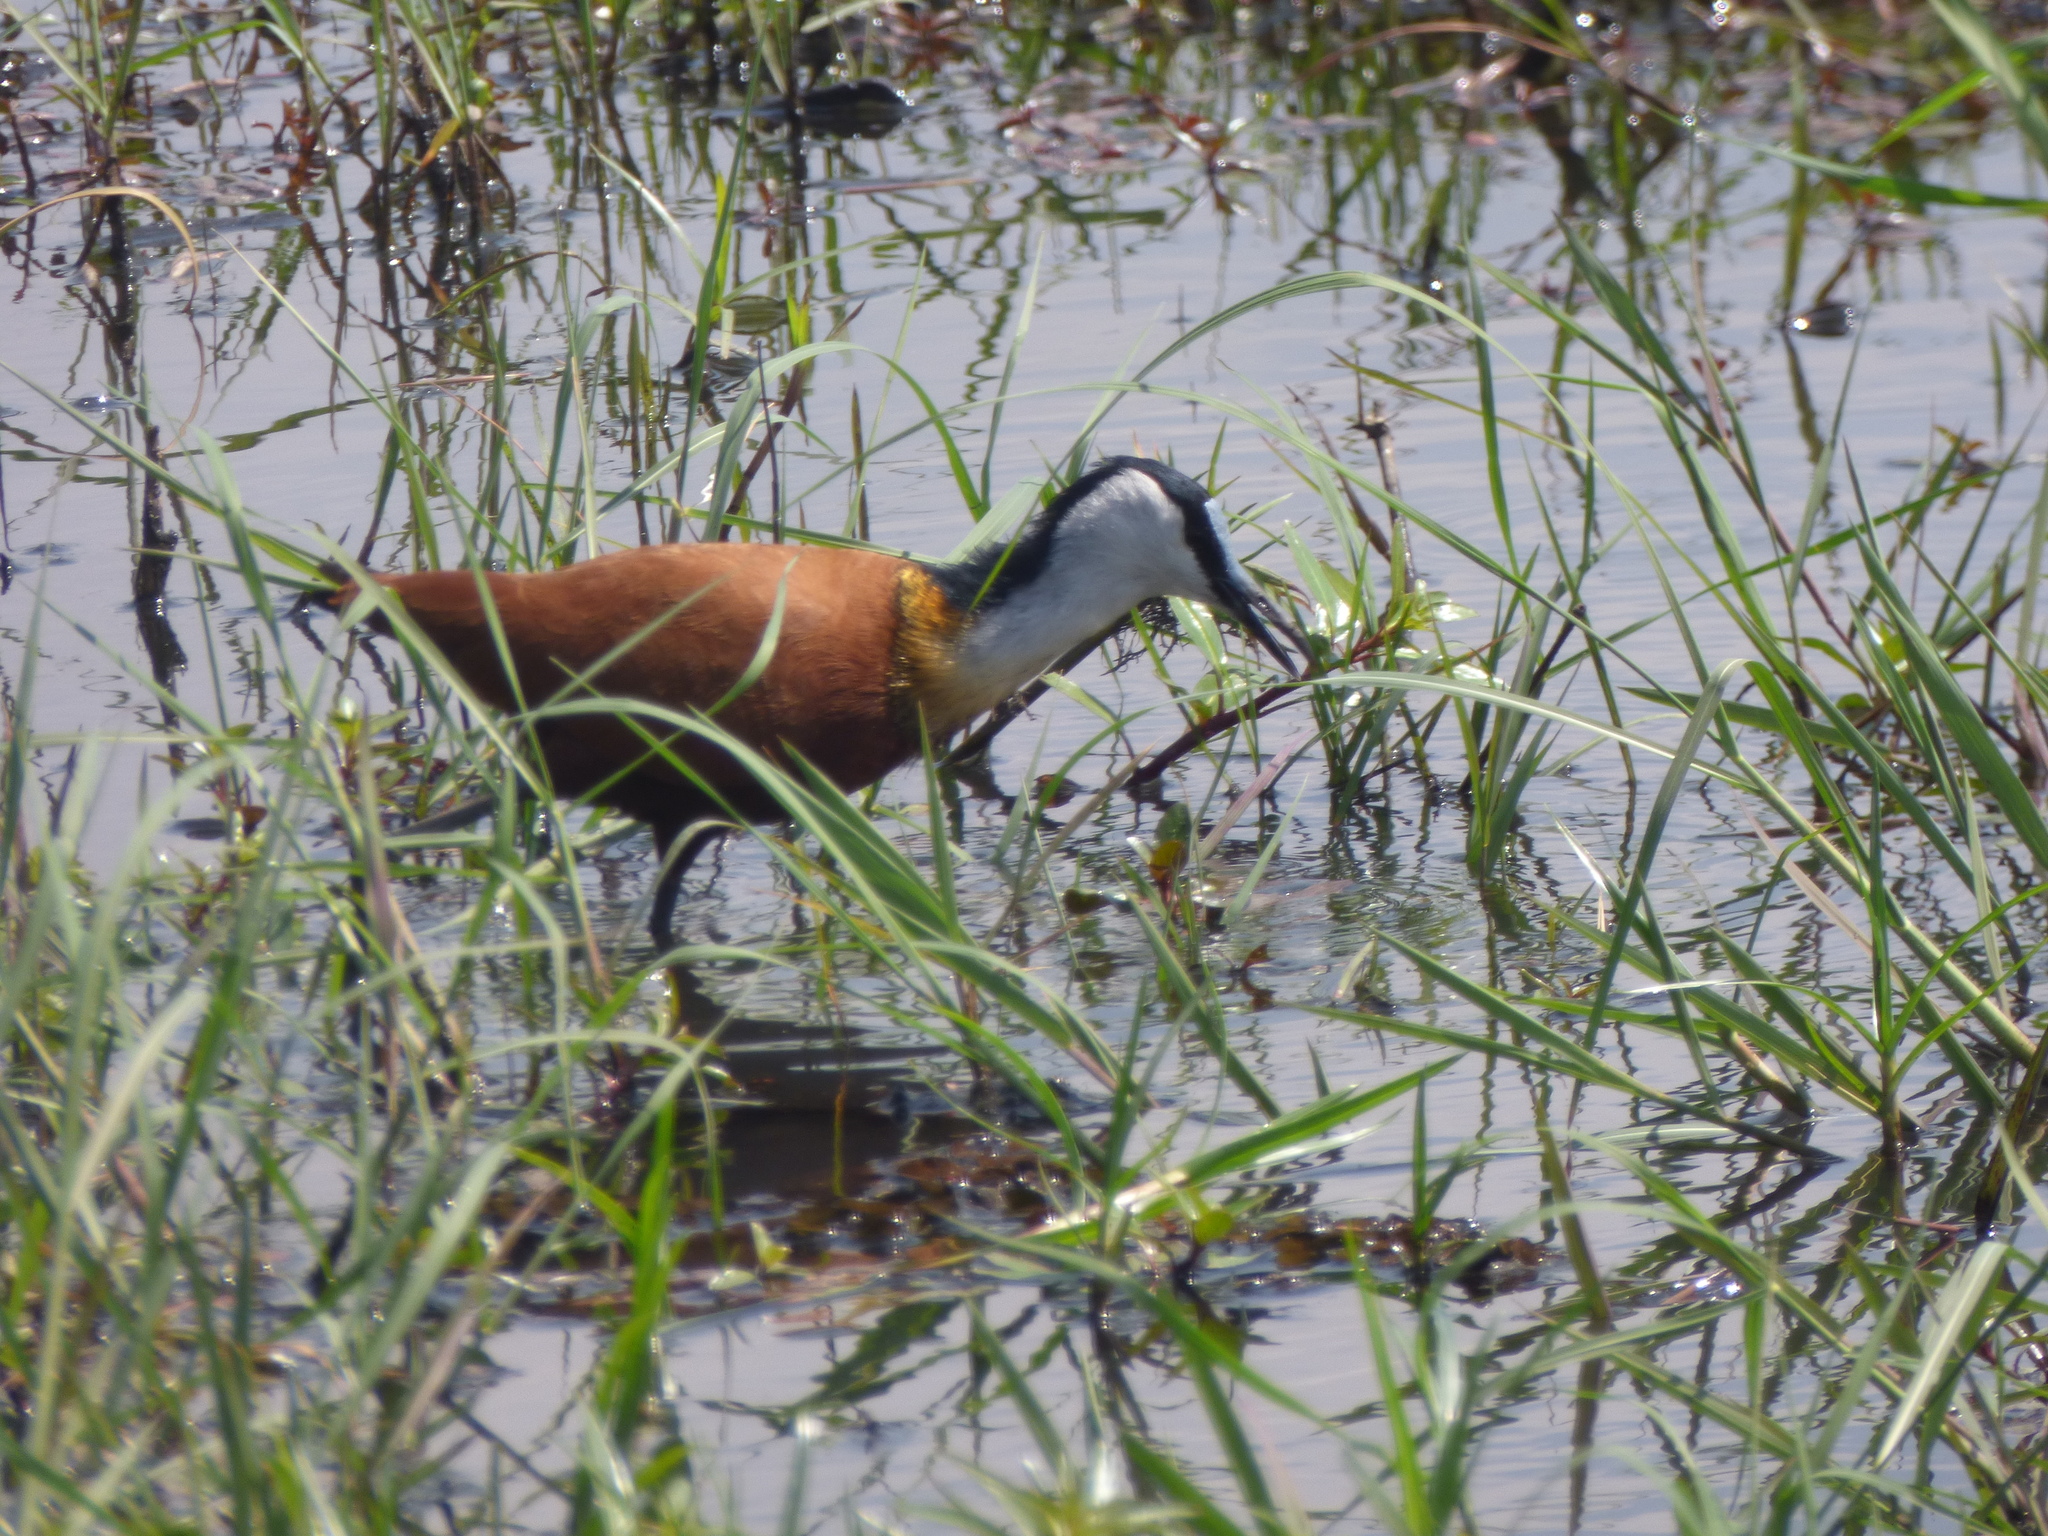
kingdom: Animalia
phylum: Chordata
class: Aves
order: Charadriiformes
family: Jacanidae
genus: Actophilornis
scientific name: Actophilornis africanus
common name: African jacana
